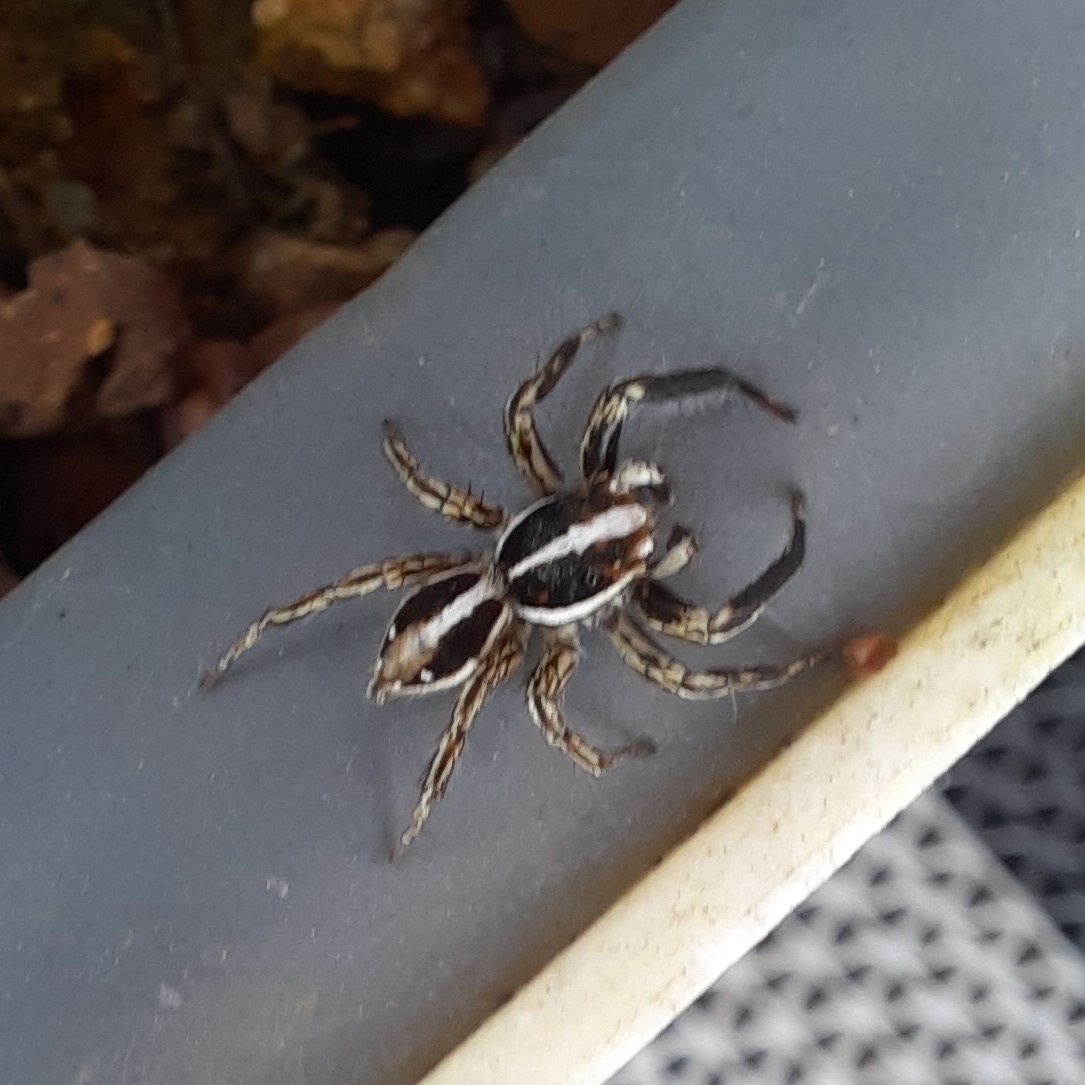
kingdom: Animalia
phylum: Arthropoda
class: Arachnida
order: Araneae
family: Salticidae
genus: Plexippus
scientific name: Plexippus paykulli
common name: Pantropical jumper
